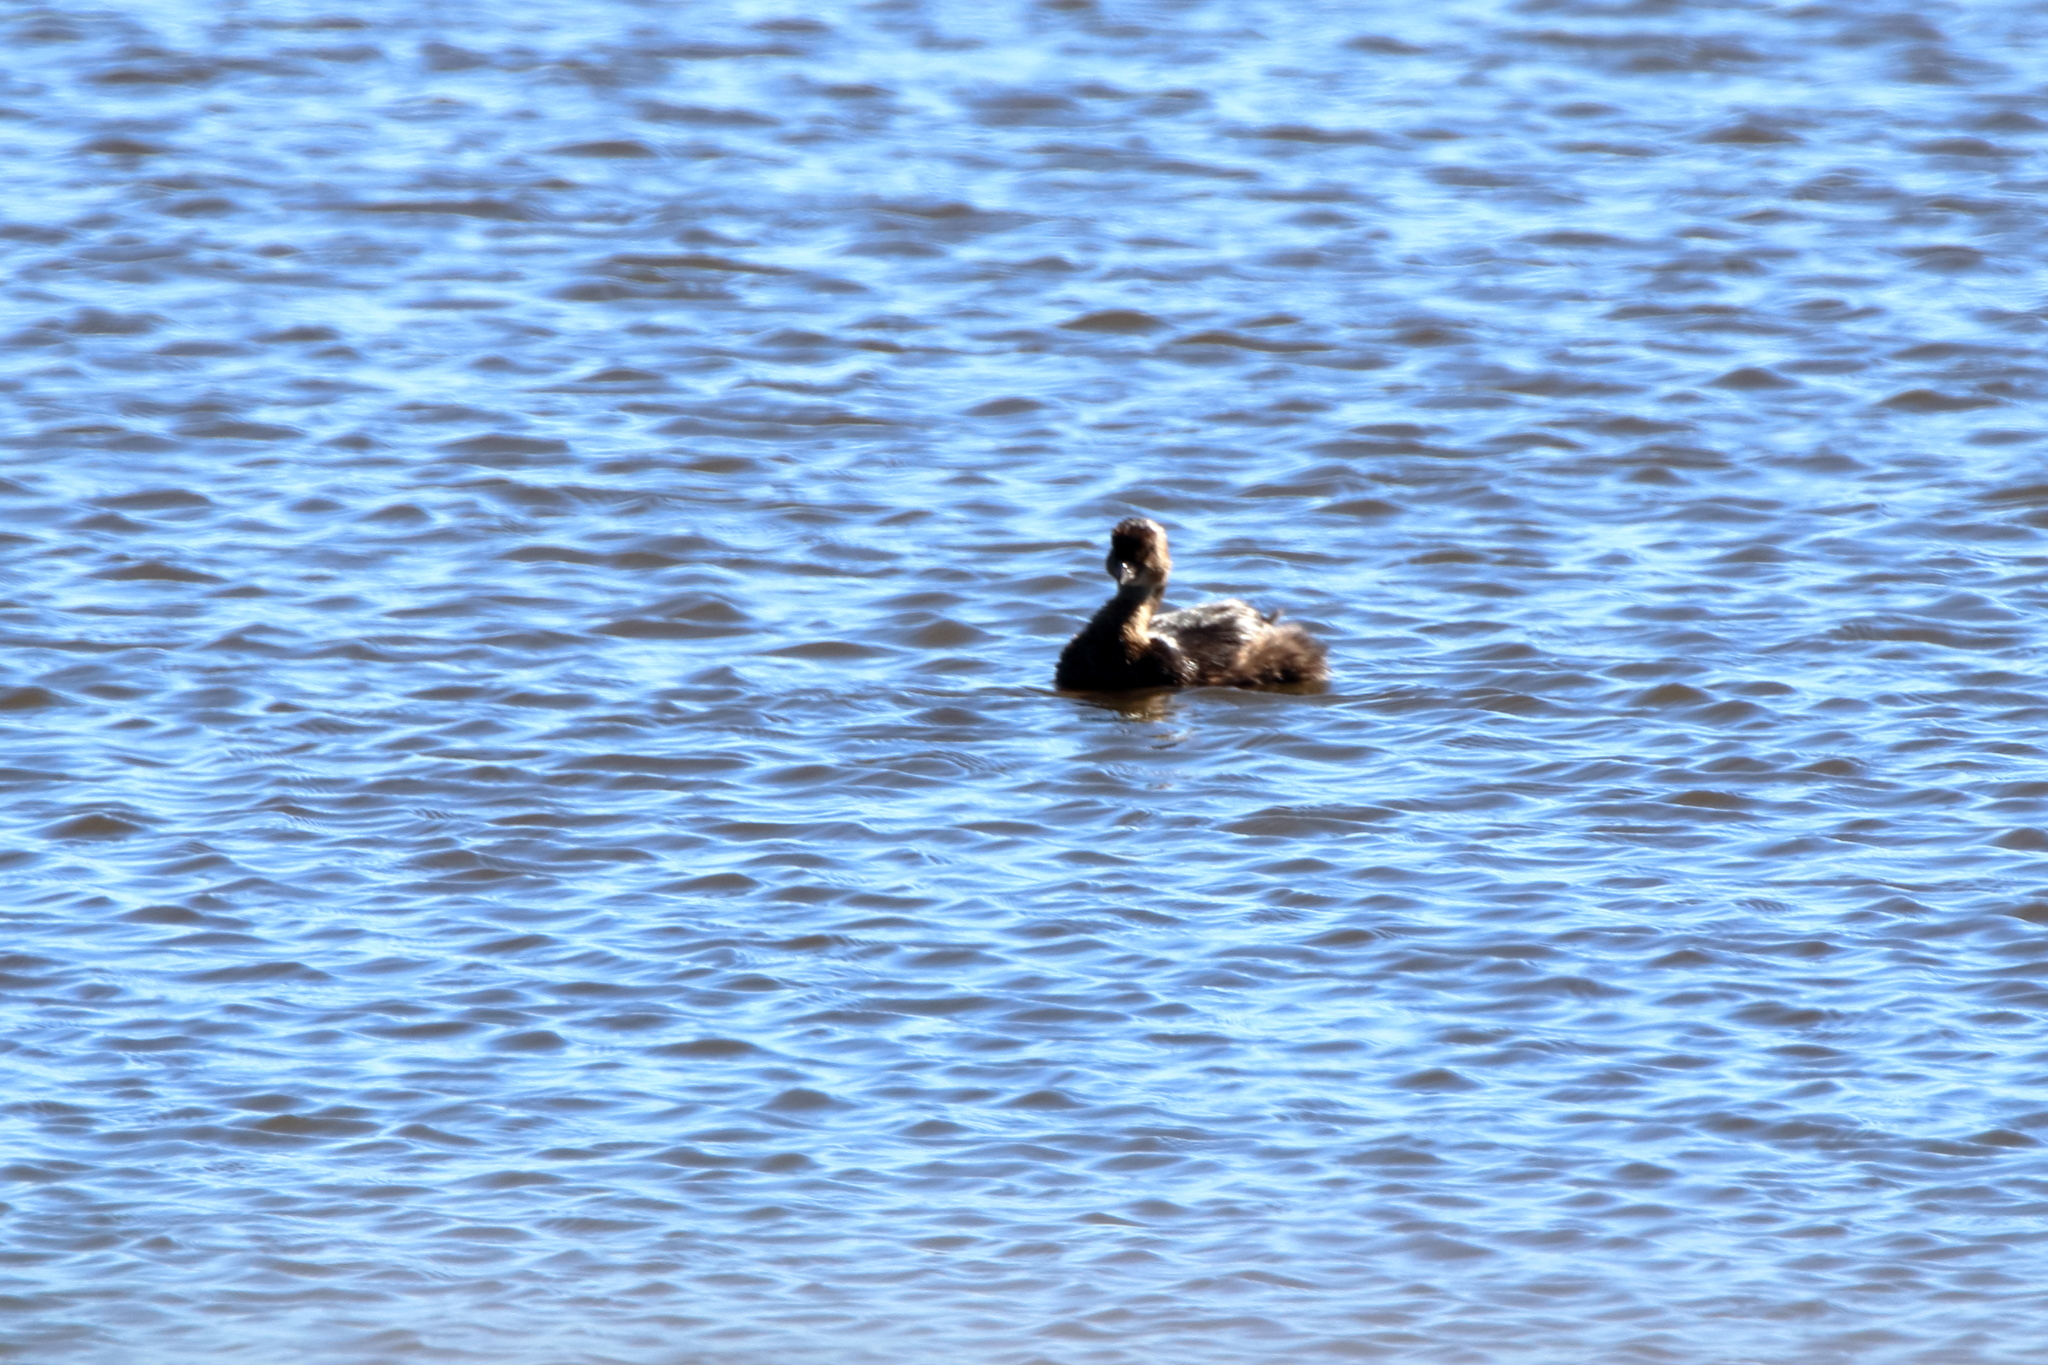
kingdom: Animalia
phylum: Chordata
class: Aves
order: Podicipediformes
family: Podicipedidae
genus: Podilymbus
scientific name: Podilymbus podiceps
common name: Pied-billed grebe
